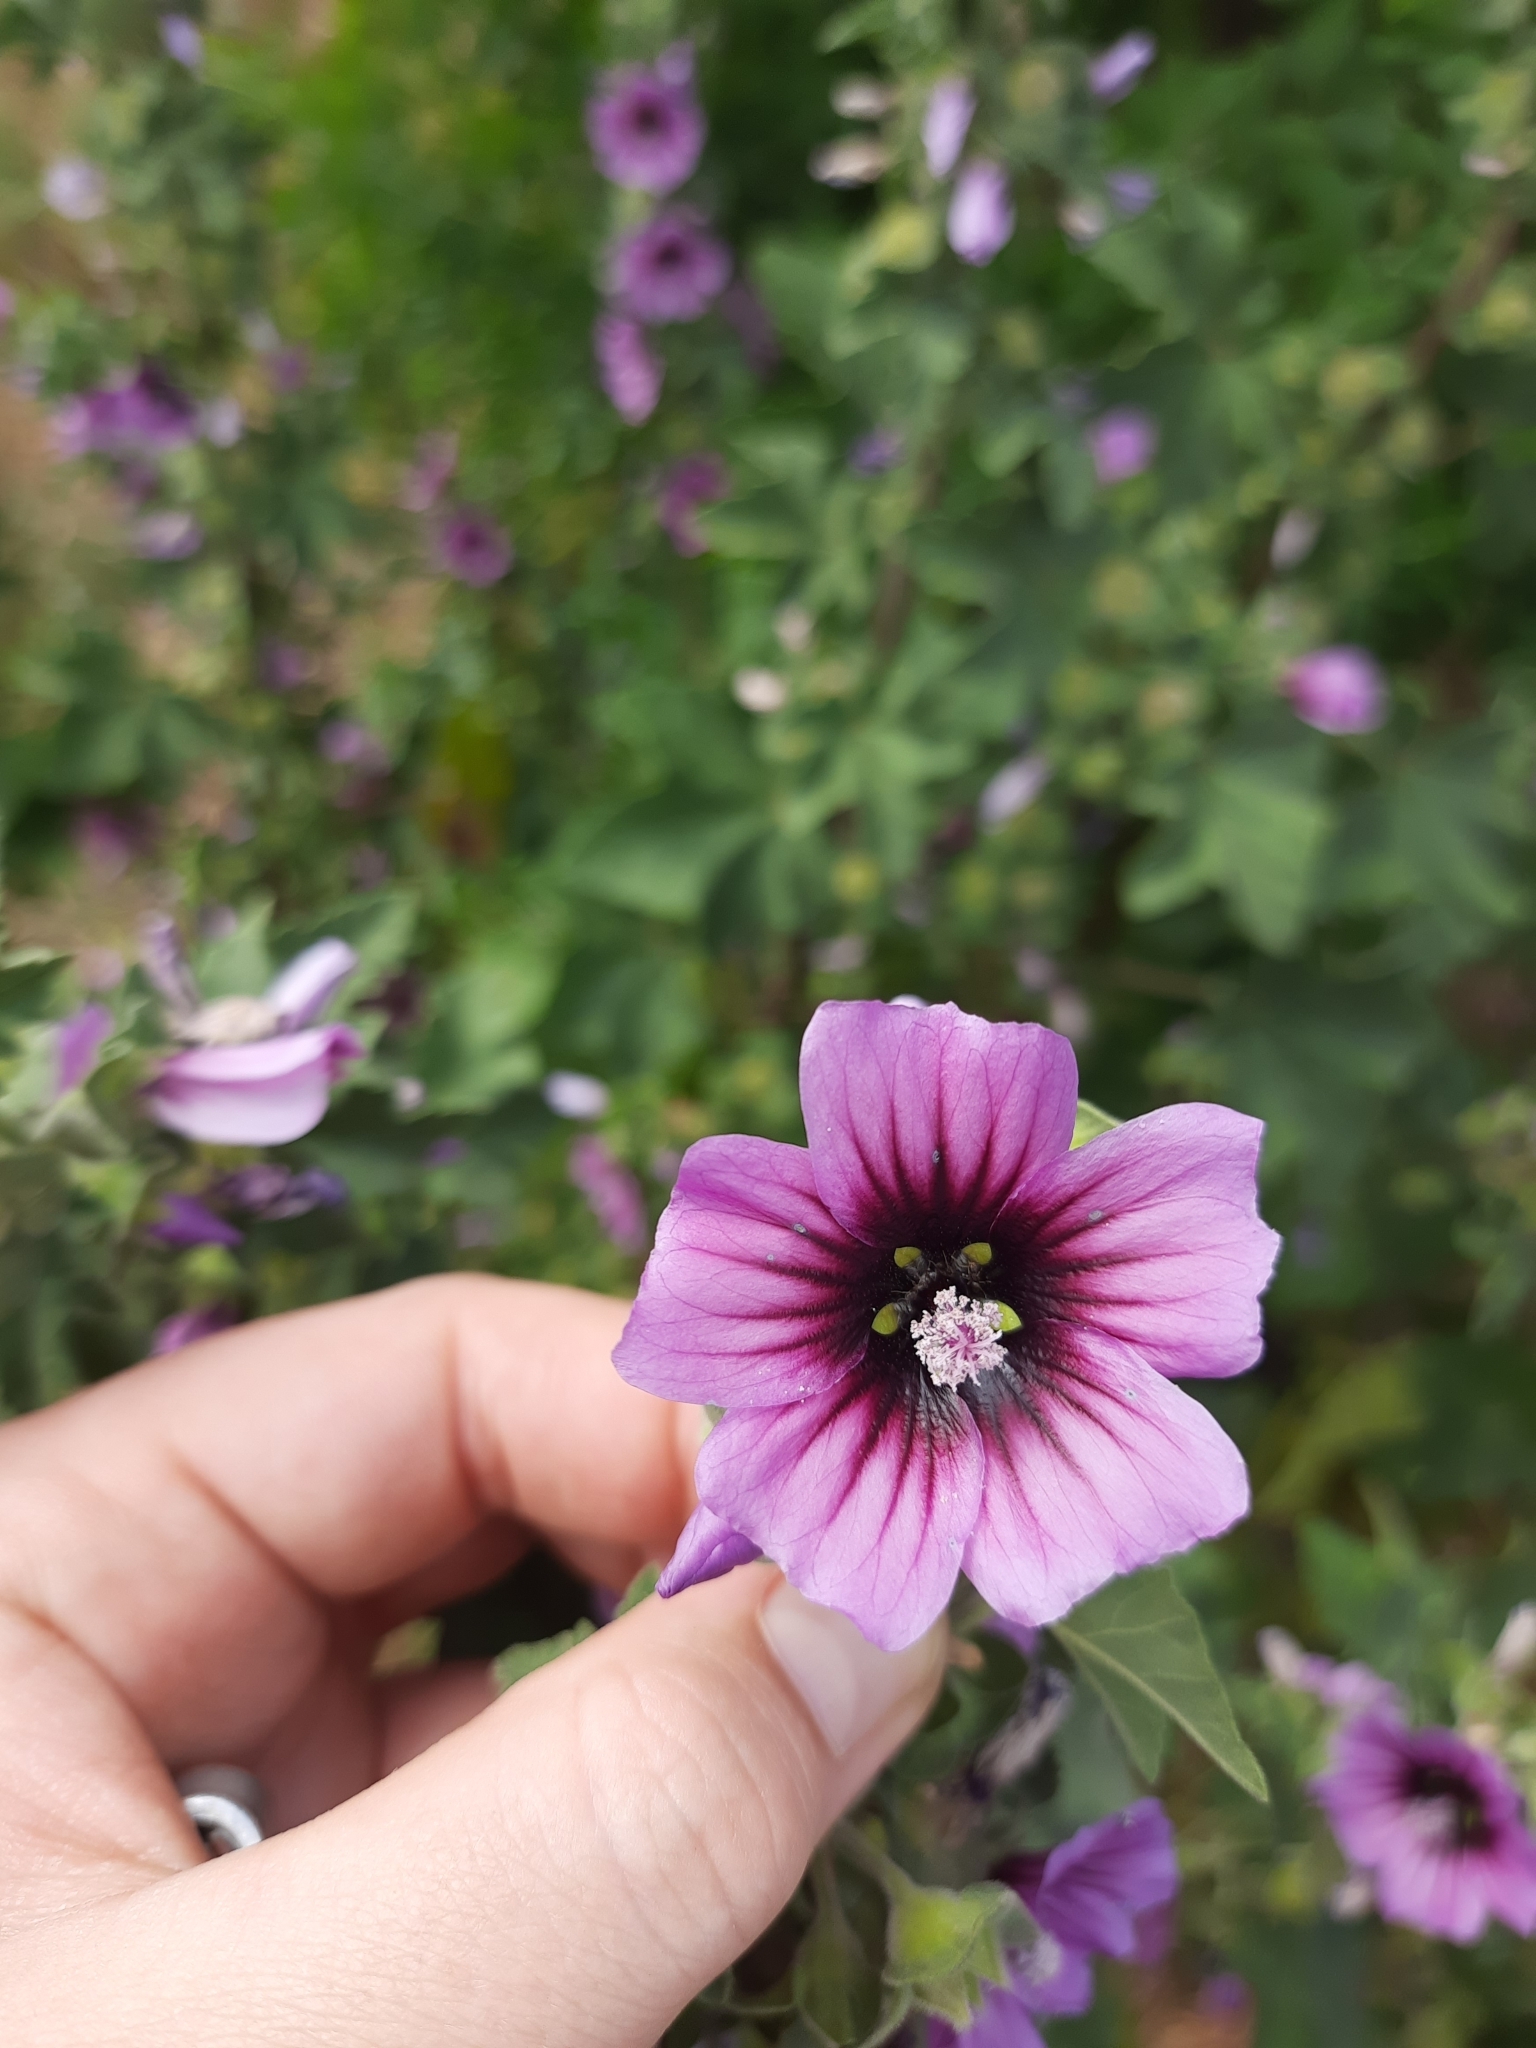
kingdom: Plantae
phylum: Tracheophyta
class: Magnoliopsida
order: Malvales
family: Malvaceae
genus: Malva
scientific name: Malva arborea
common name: Tree mallow
